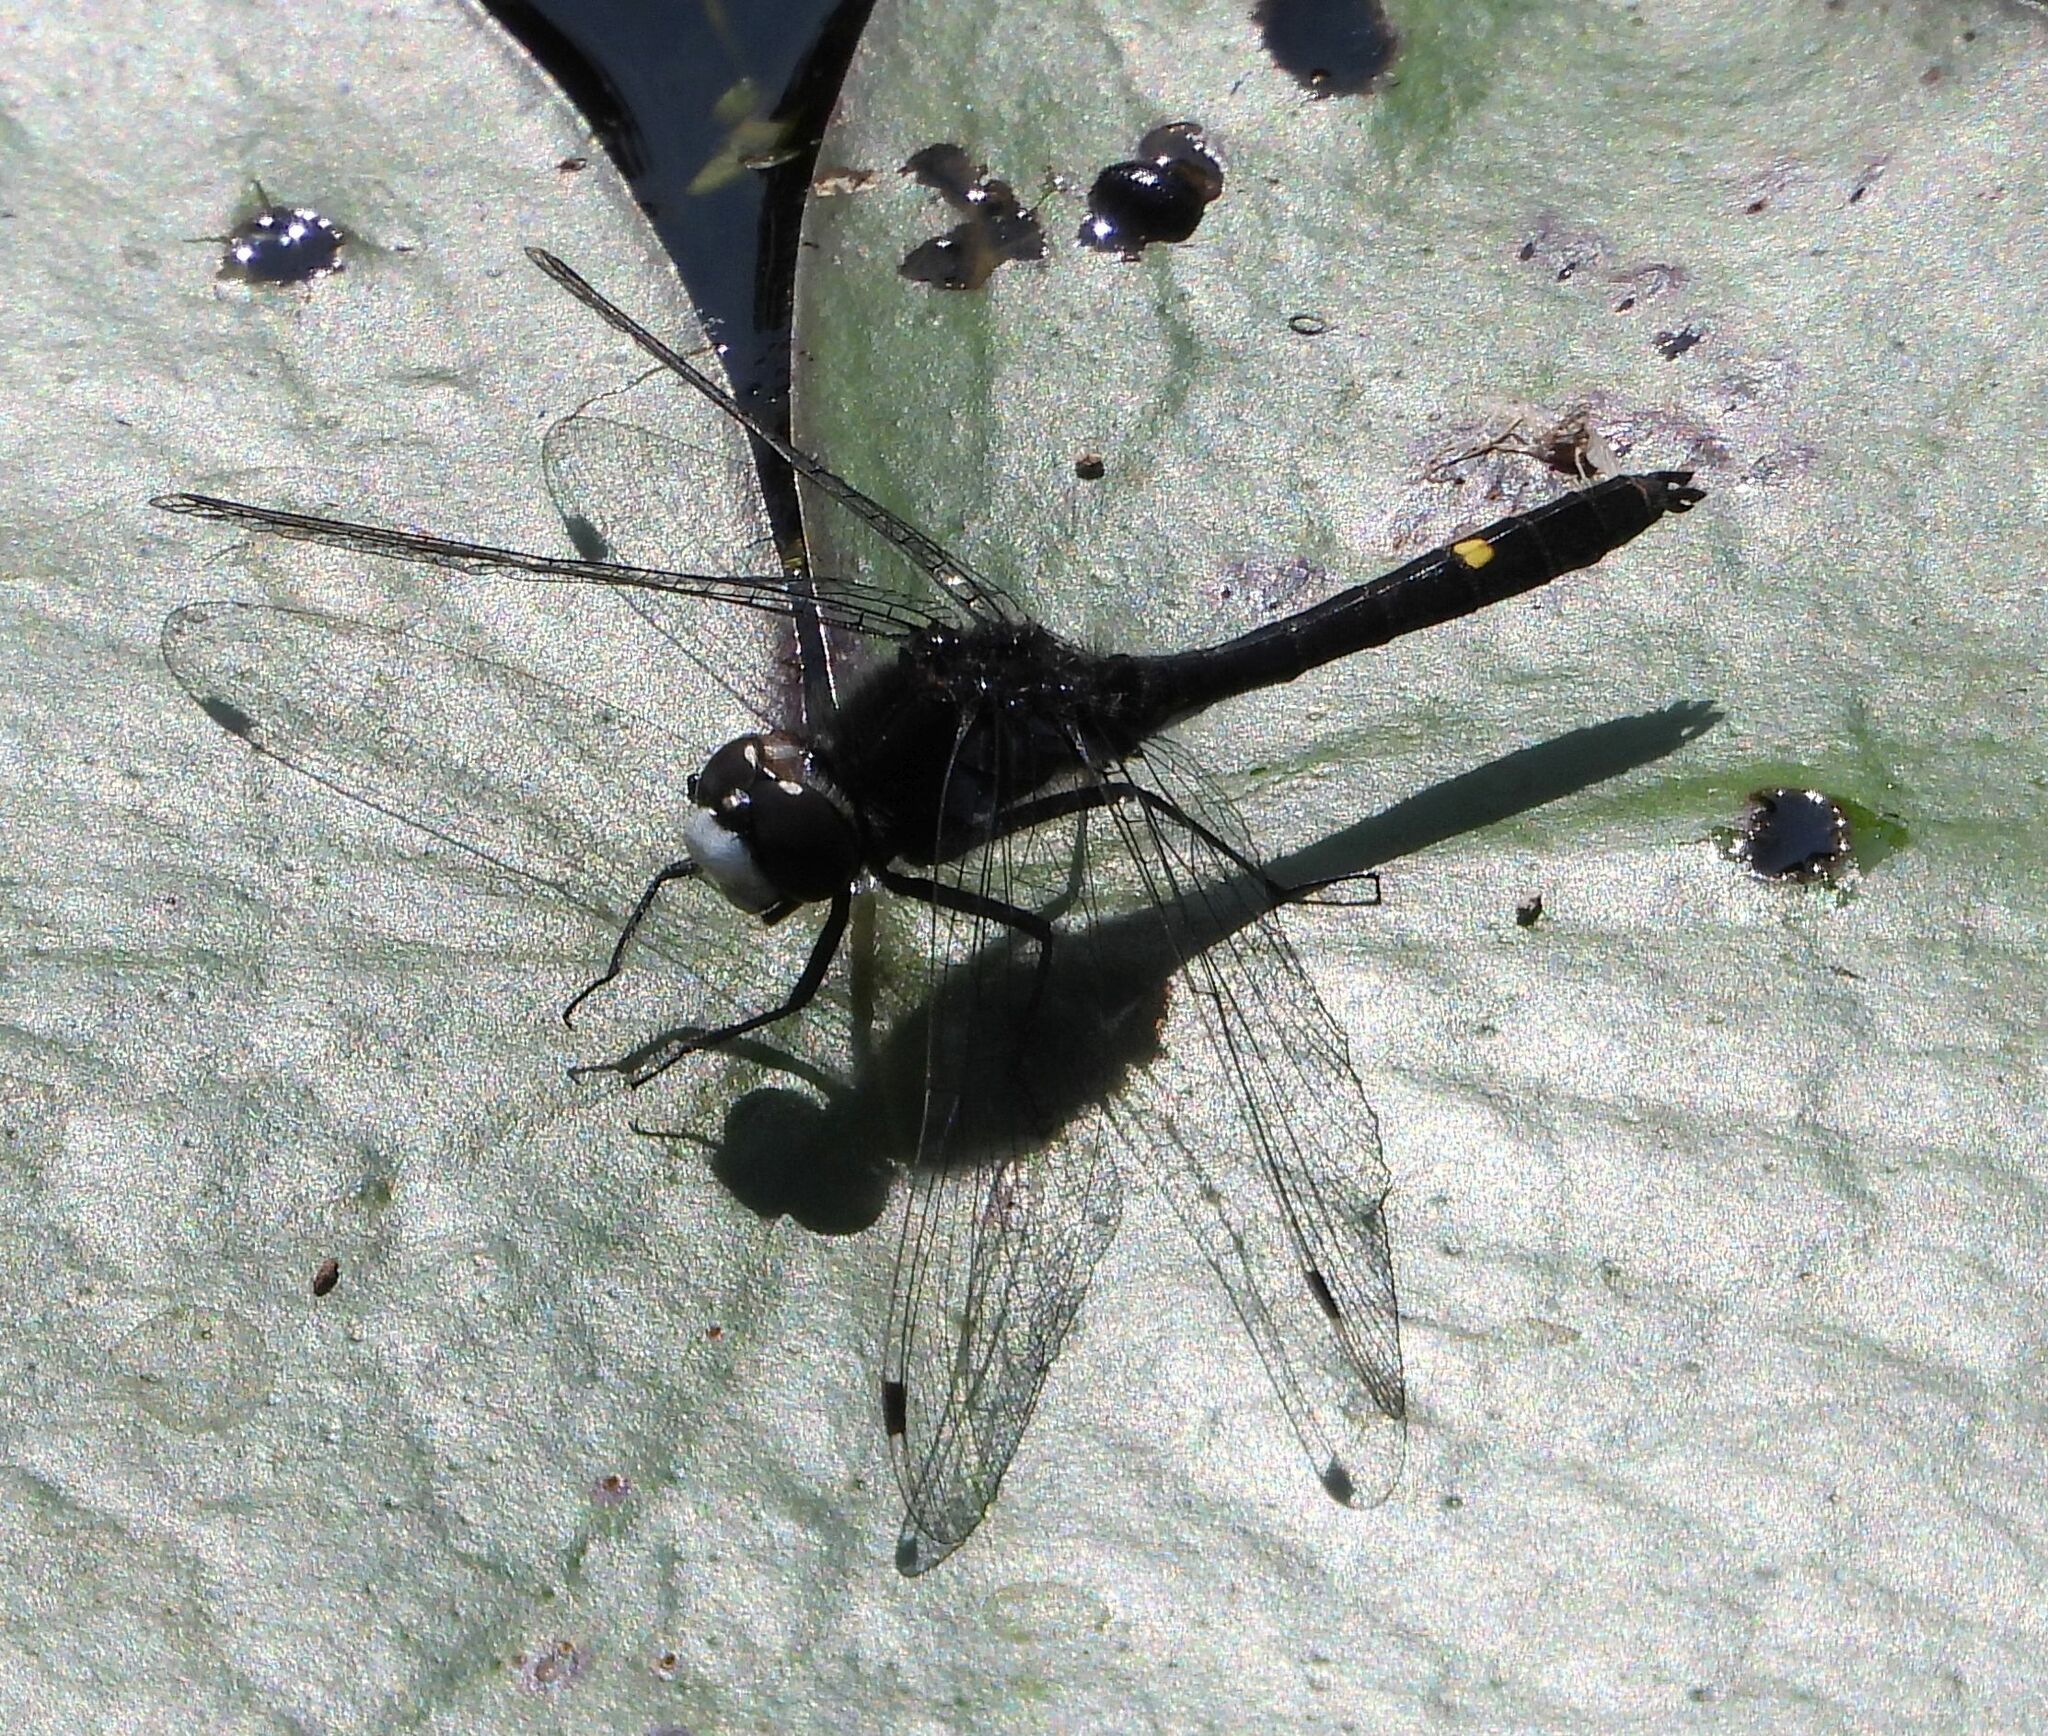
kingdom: Animalia
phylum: Arthropoda
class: Insecta
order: Odonata
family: Libellulidae
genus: Leucorrhinia
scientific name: Leucorrhinia intacta
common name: Dot-tailed whiteface
